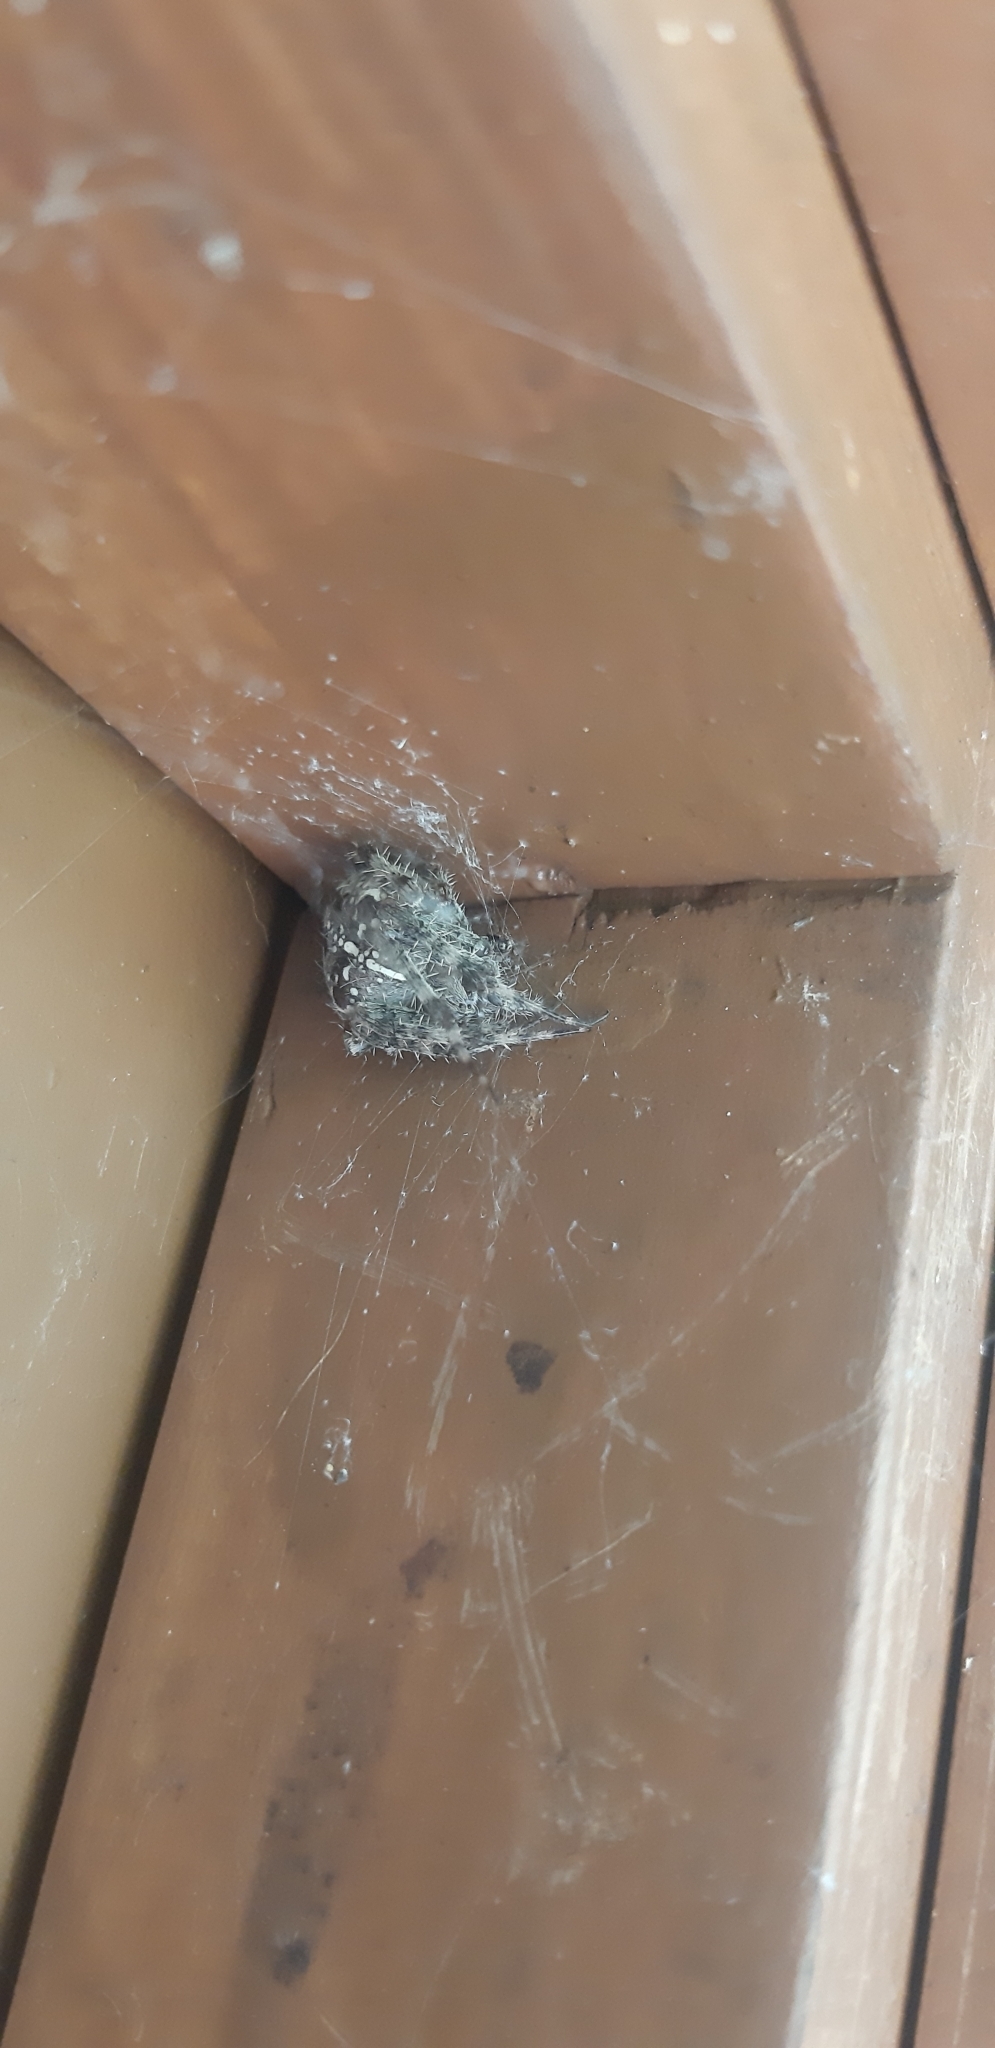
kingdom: Animalia
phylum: Arthropoda
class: Arachnida
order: Araneae
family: Araneidae
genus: Araneus
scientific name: Araneus diadematus
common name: Cross orbweaver
